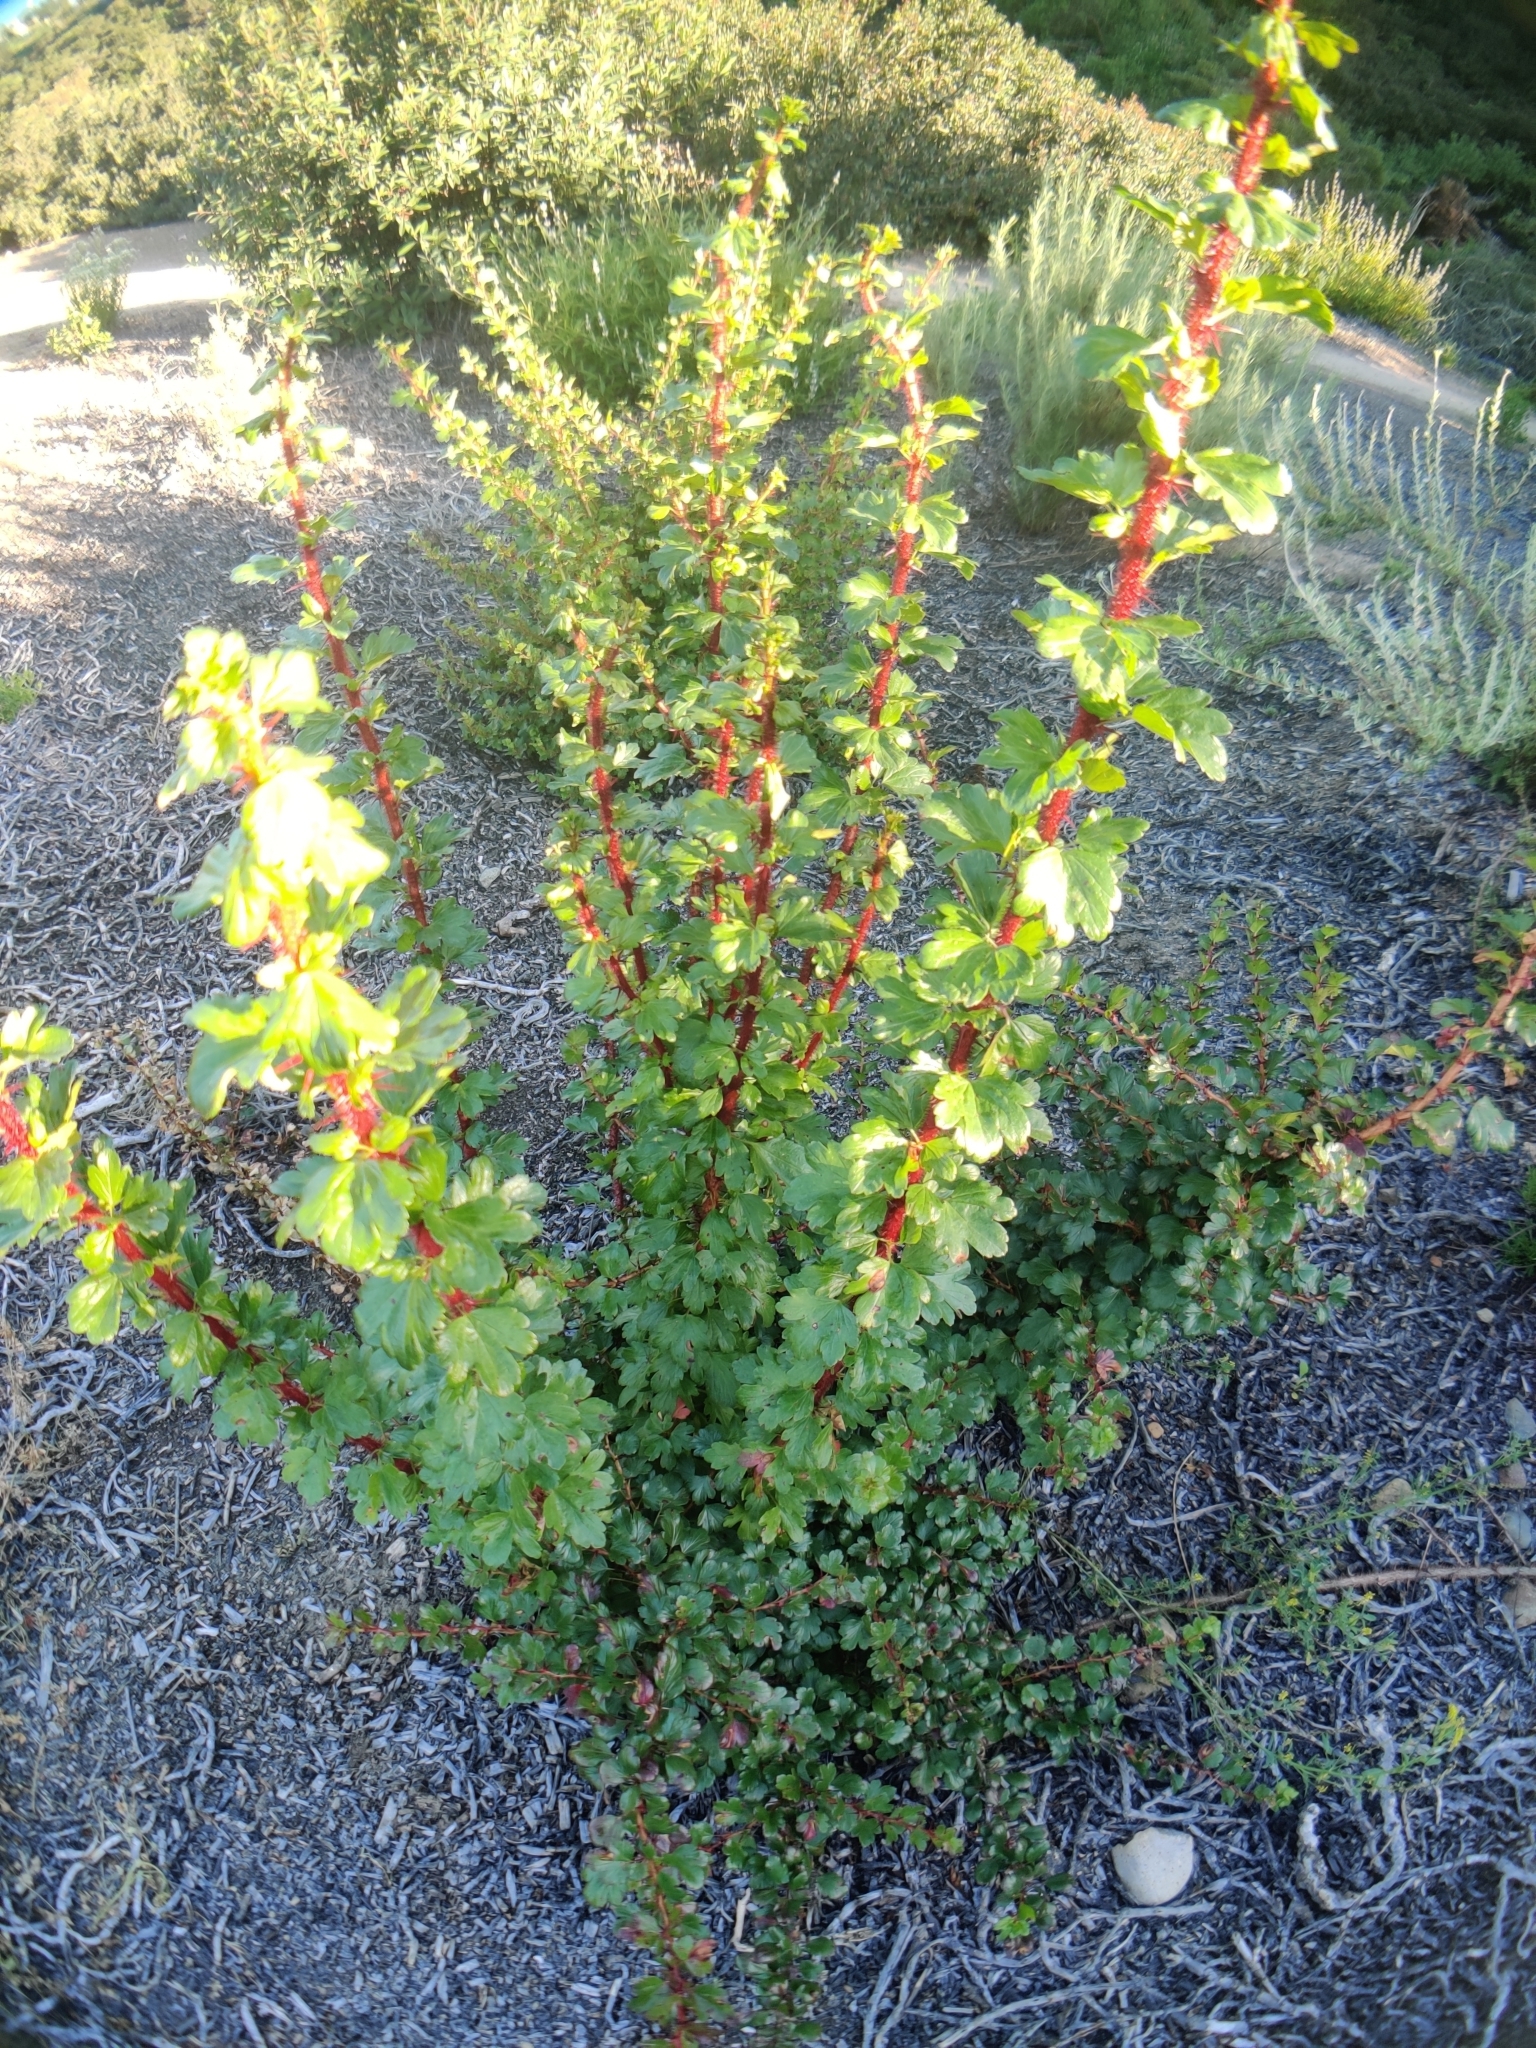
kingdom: Plantae
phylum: Tracheophyta
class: Magnoliopsida
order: Saxifragales
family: Grossulariaceae
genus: Ribes
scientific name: Ribes speciosum
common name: Fuchsia-flower gooseberry
